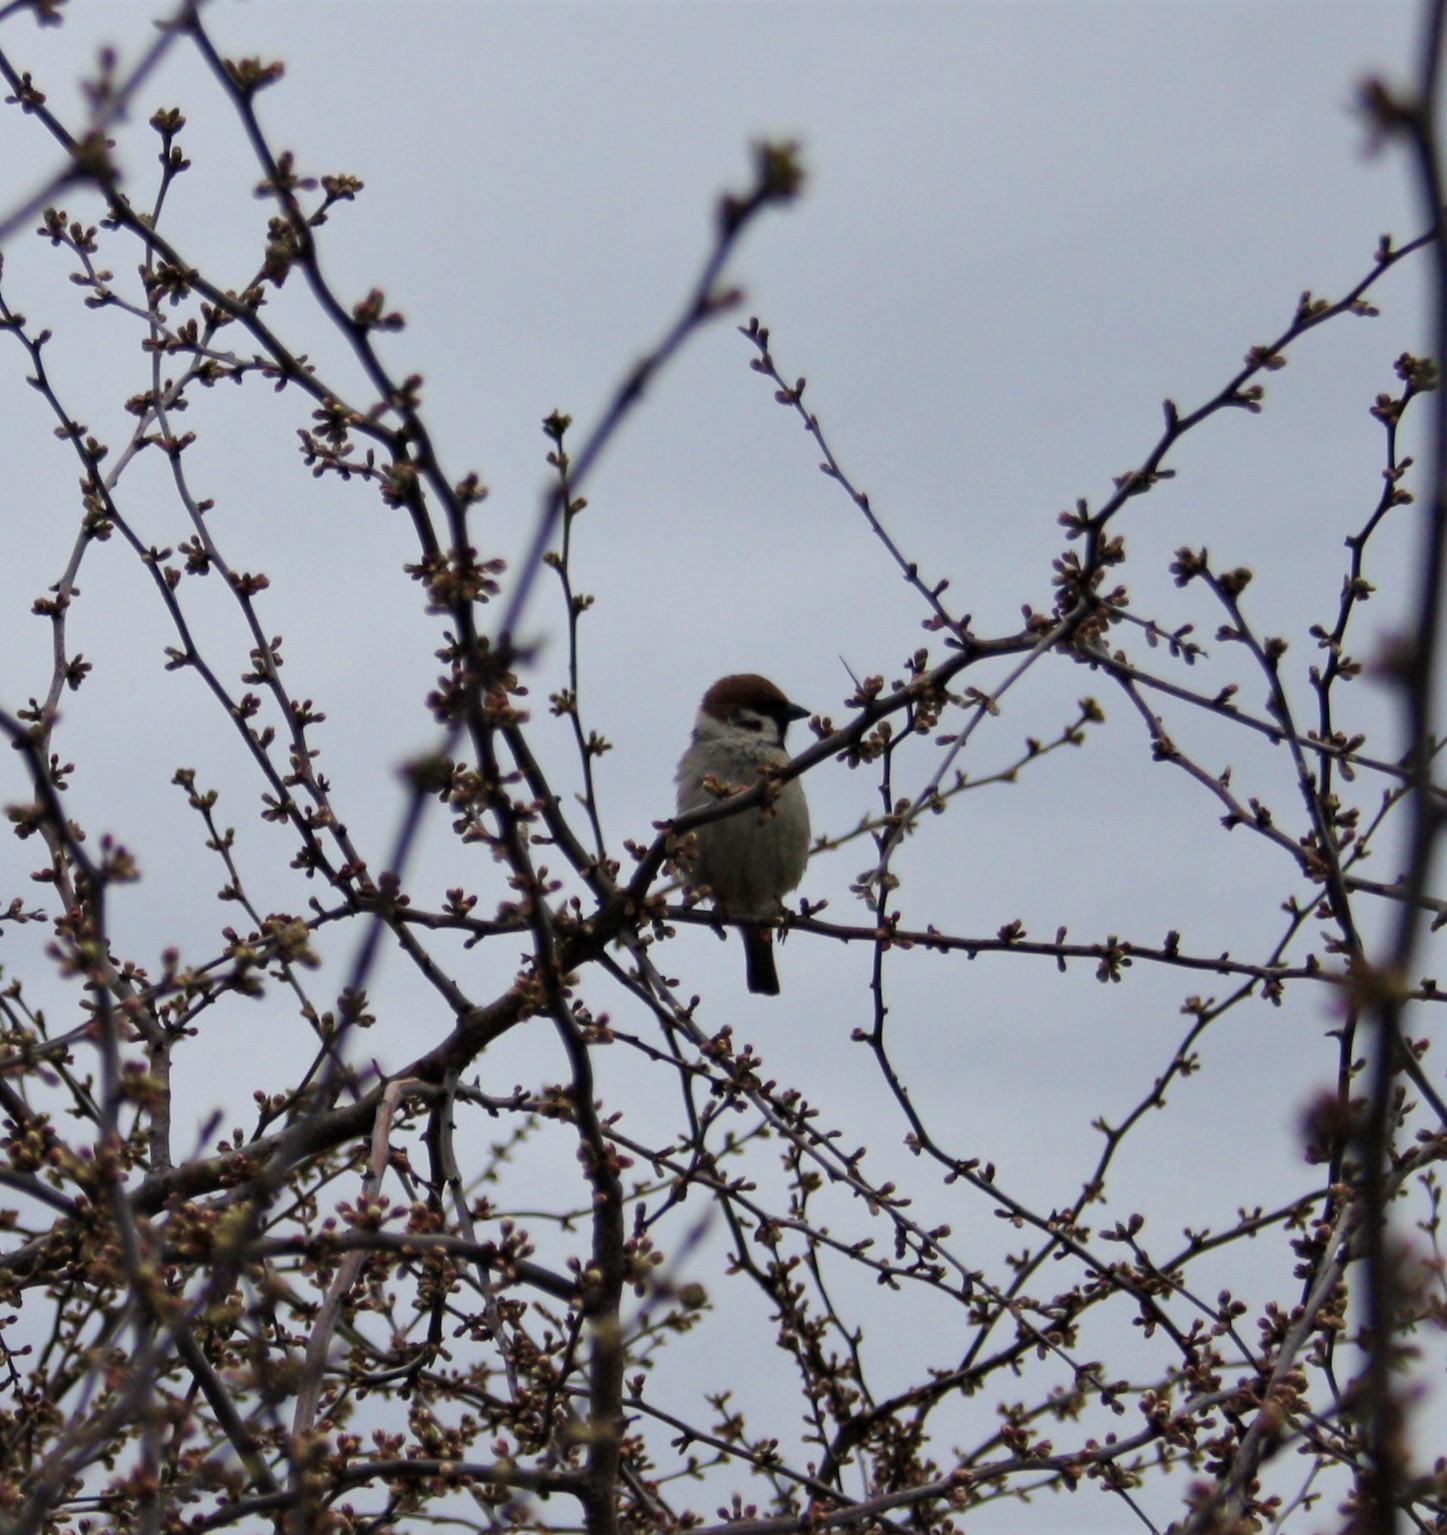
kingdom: Animalia
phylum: Chordata
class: Aves
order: Passeriformes
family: Passeridae
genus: Passer
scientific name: Passer montanus
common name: Eurasian tree sparrow
